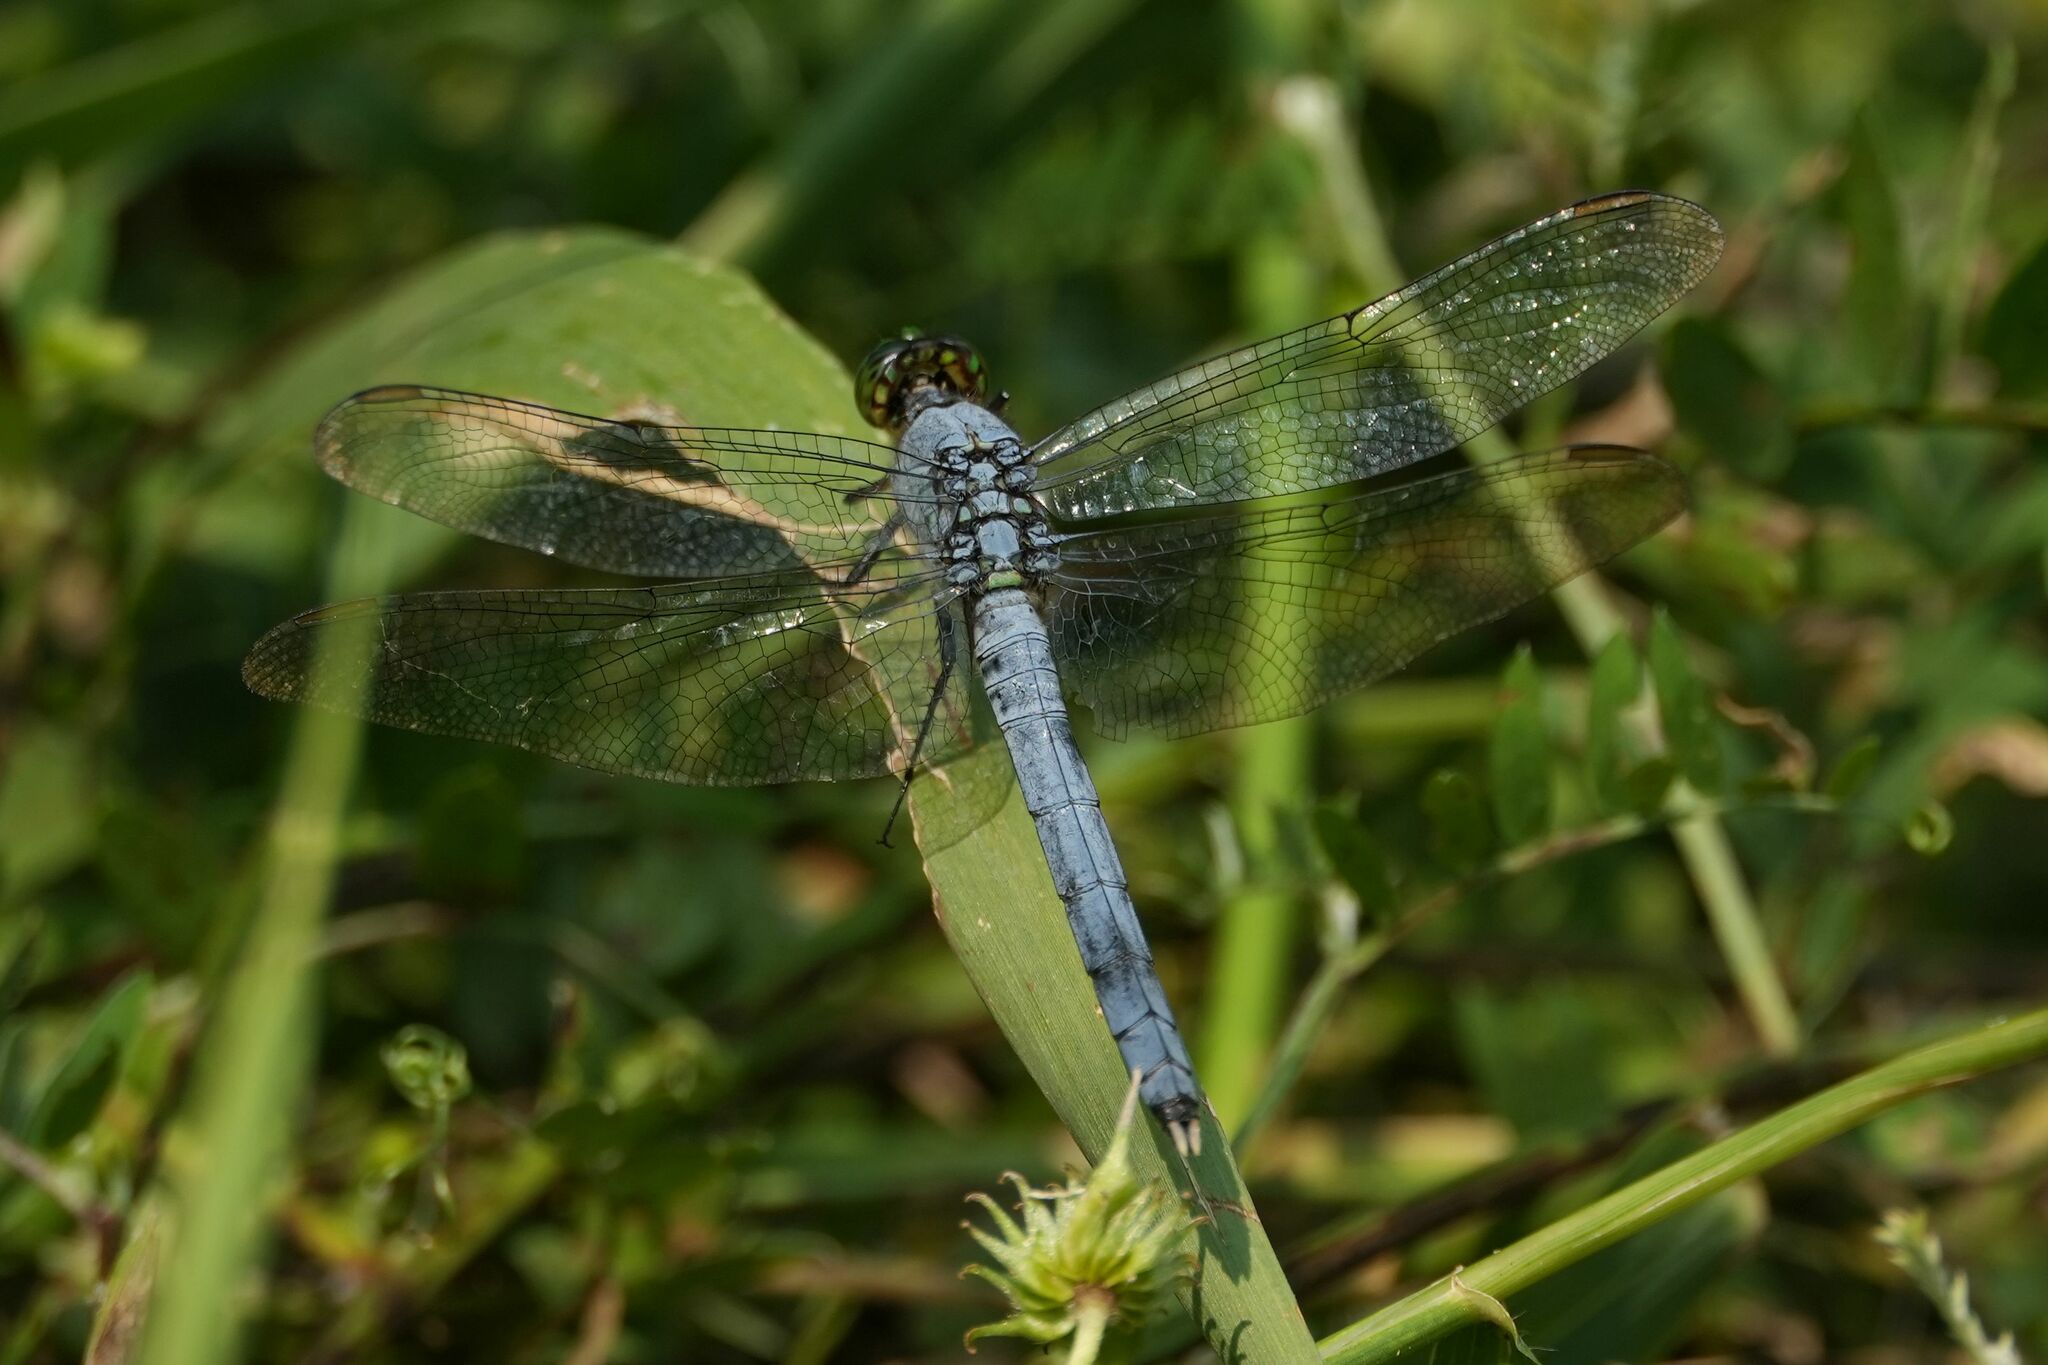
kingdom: Animalia
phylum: Arthropoda
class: Insecta
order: Odonata
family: Libellulidae
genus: Erythemis
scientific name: Erythemis simplicicollis
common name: Eastern pondhawk
